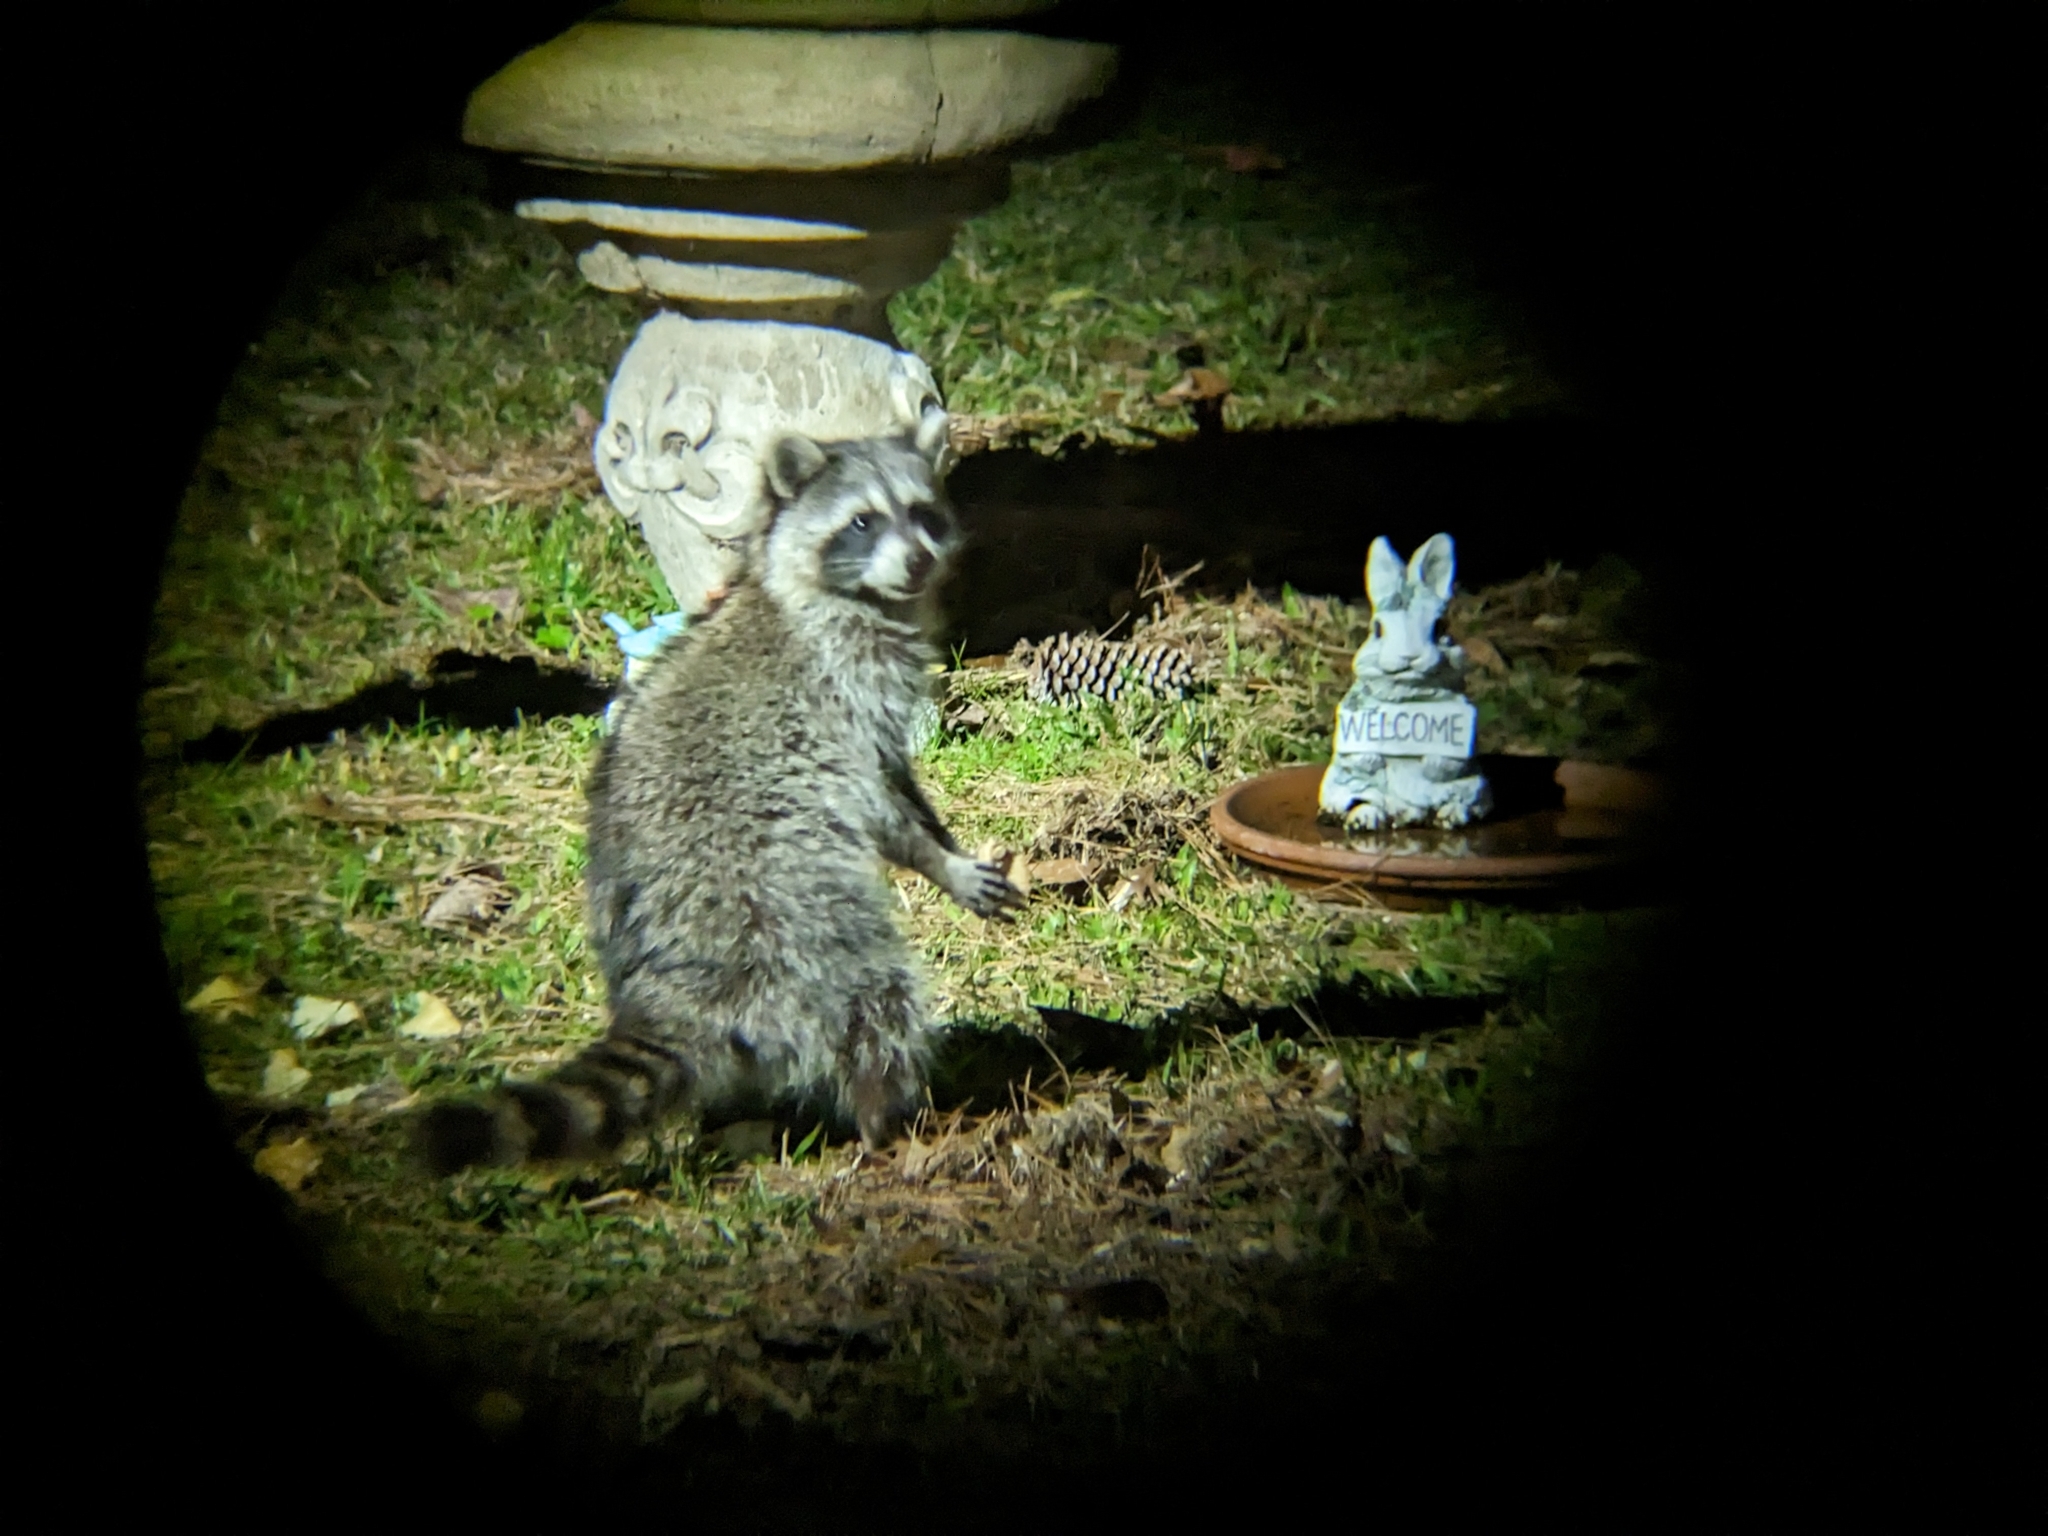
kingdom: Animalia
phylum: Chordata
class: Mammalia
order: Carnivora
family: Procyonidae
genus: Procyon
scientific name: Procyon lotor
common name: Raccoon
